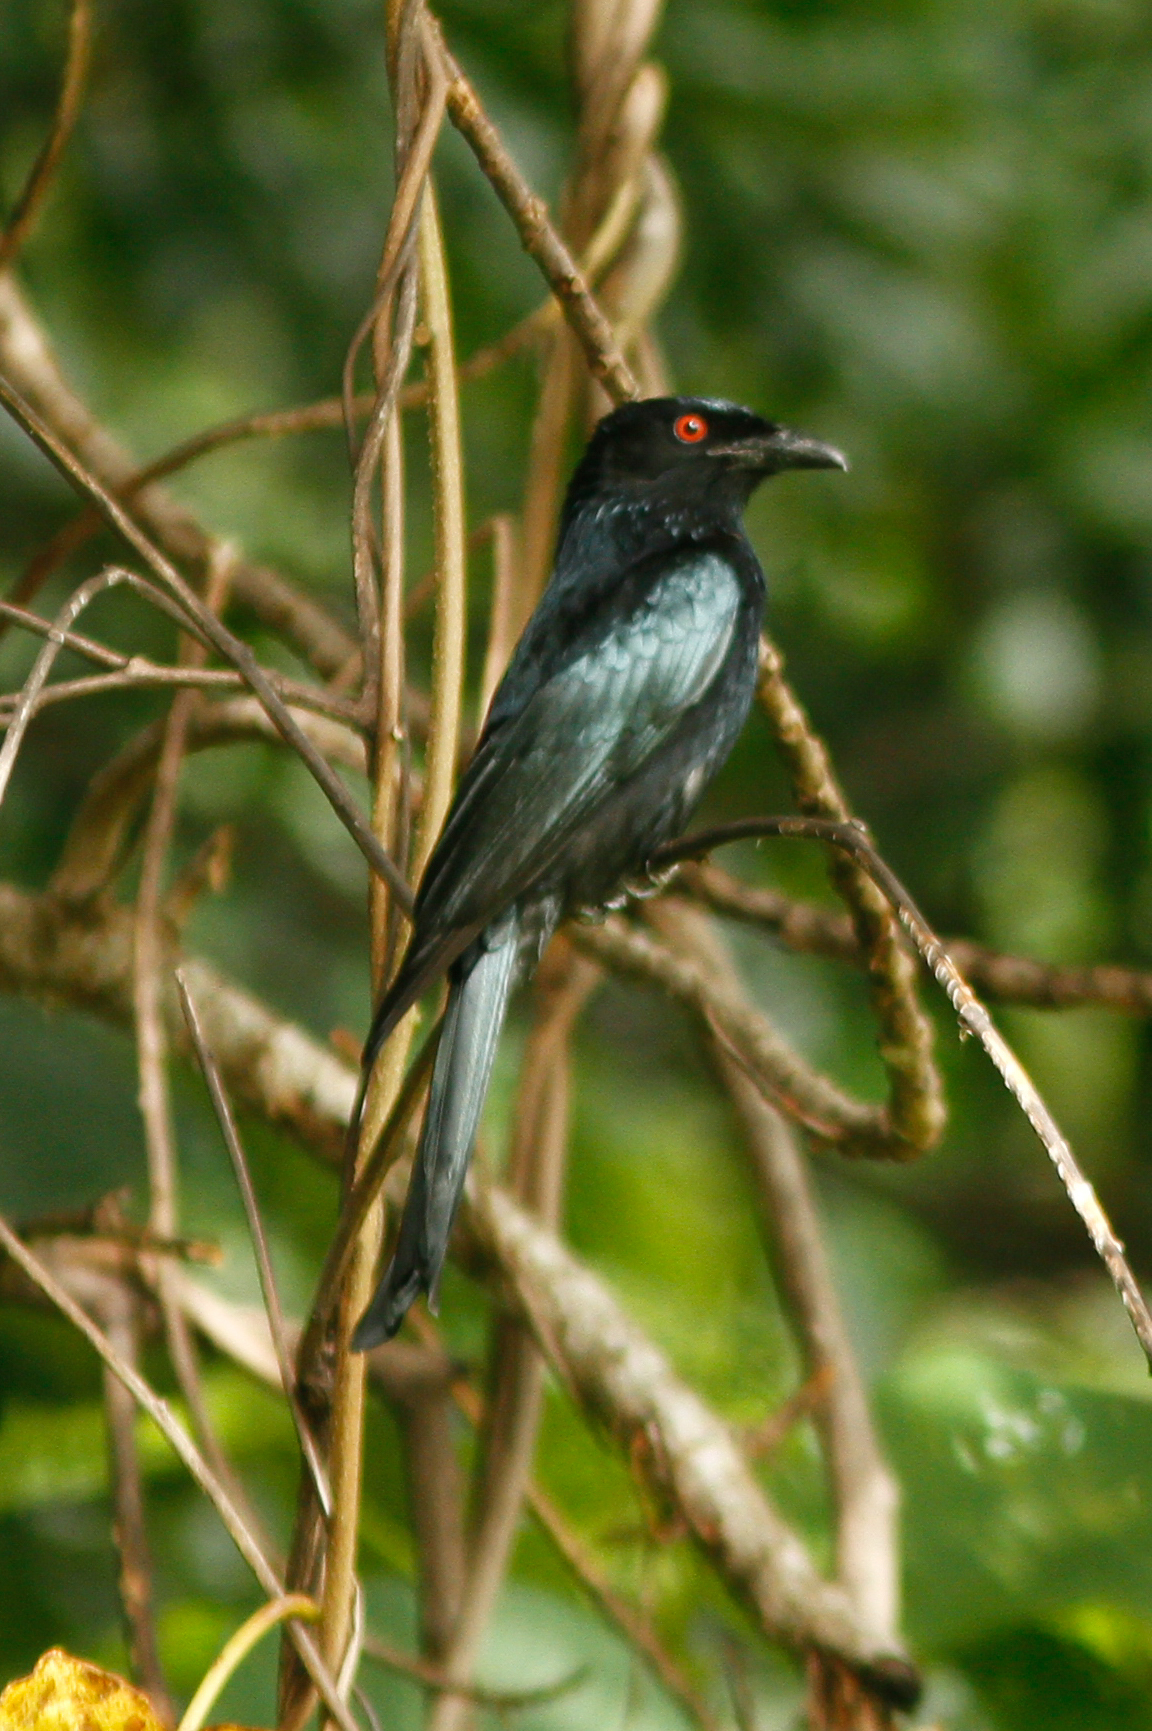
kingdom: Animalia
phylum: Chordata
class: Aves
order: Passeriformes
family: Dicruridae
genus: Dicrurus
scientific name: Dicrurus bracteatus
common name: Spangled drongo
